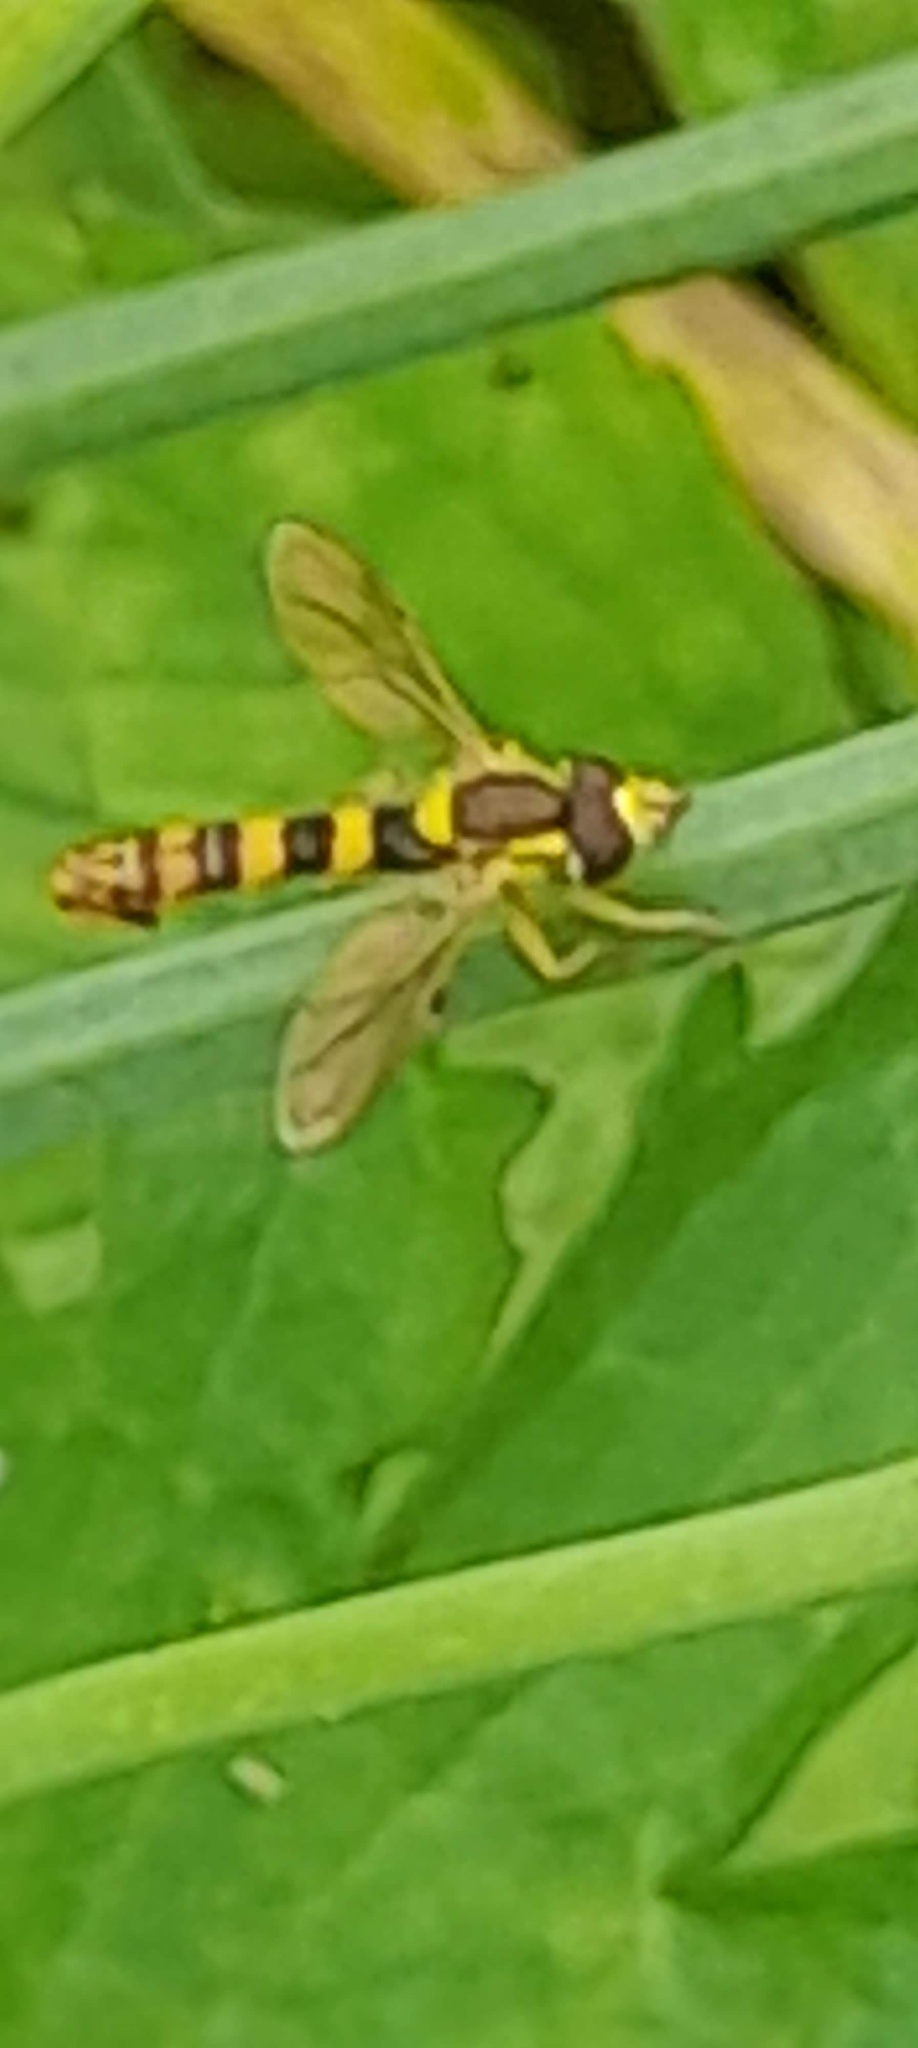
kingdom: Animalia
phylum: Arthropoda
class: Insecta
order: Diptera
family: Syrphidae
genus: Sphaerophoria
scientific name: Sphaerophoria scripta
